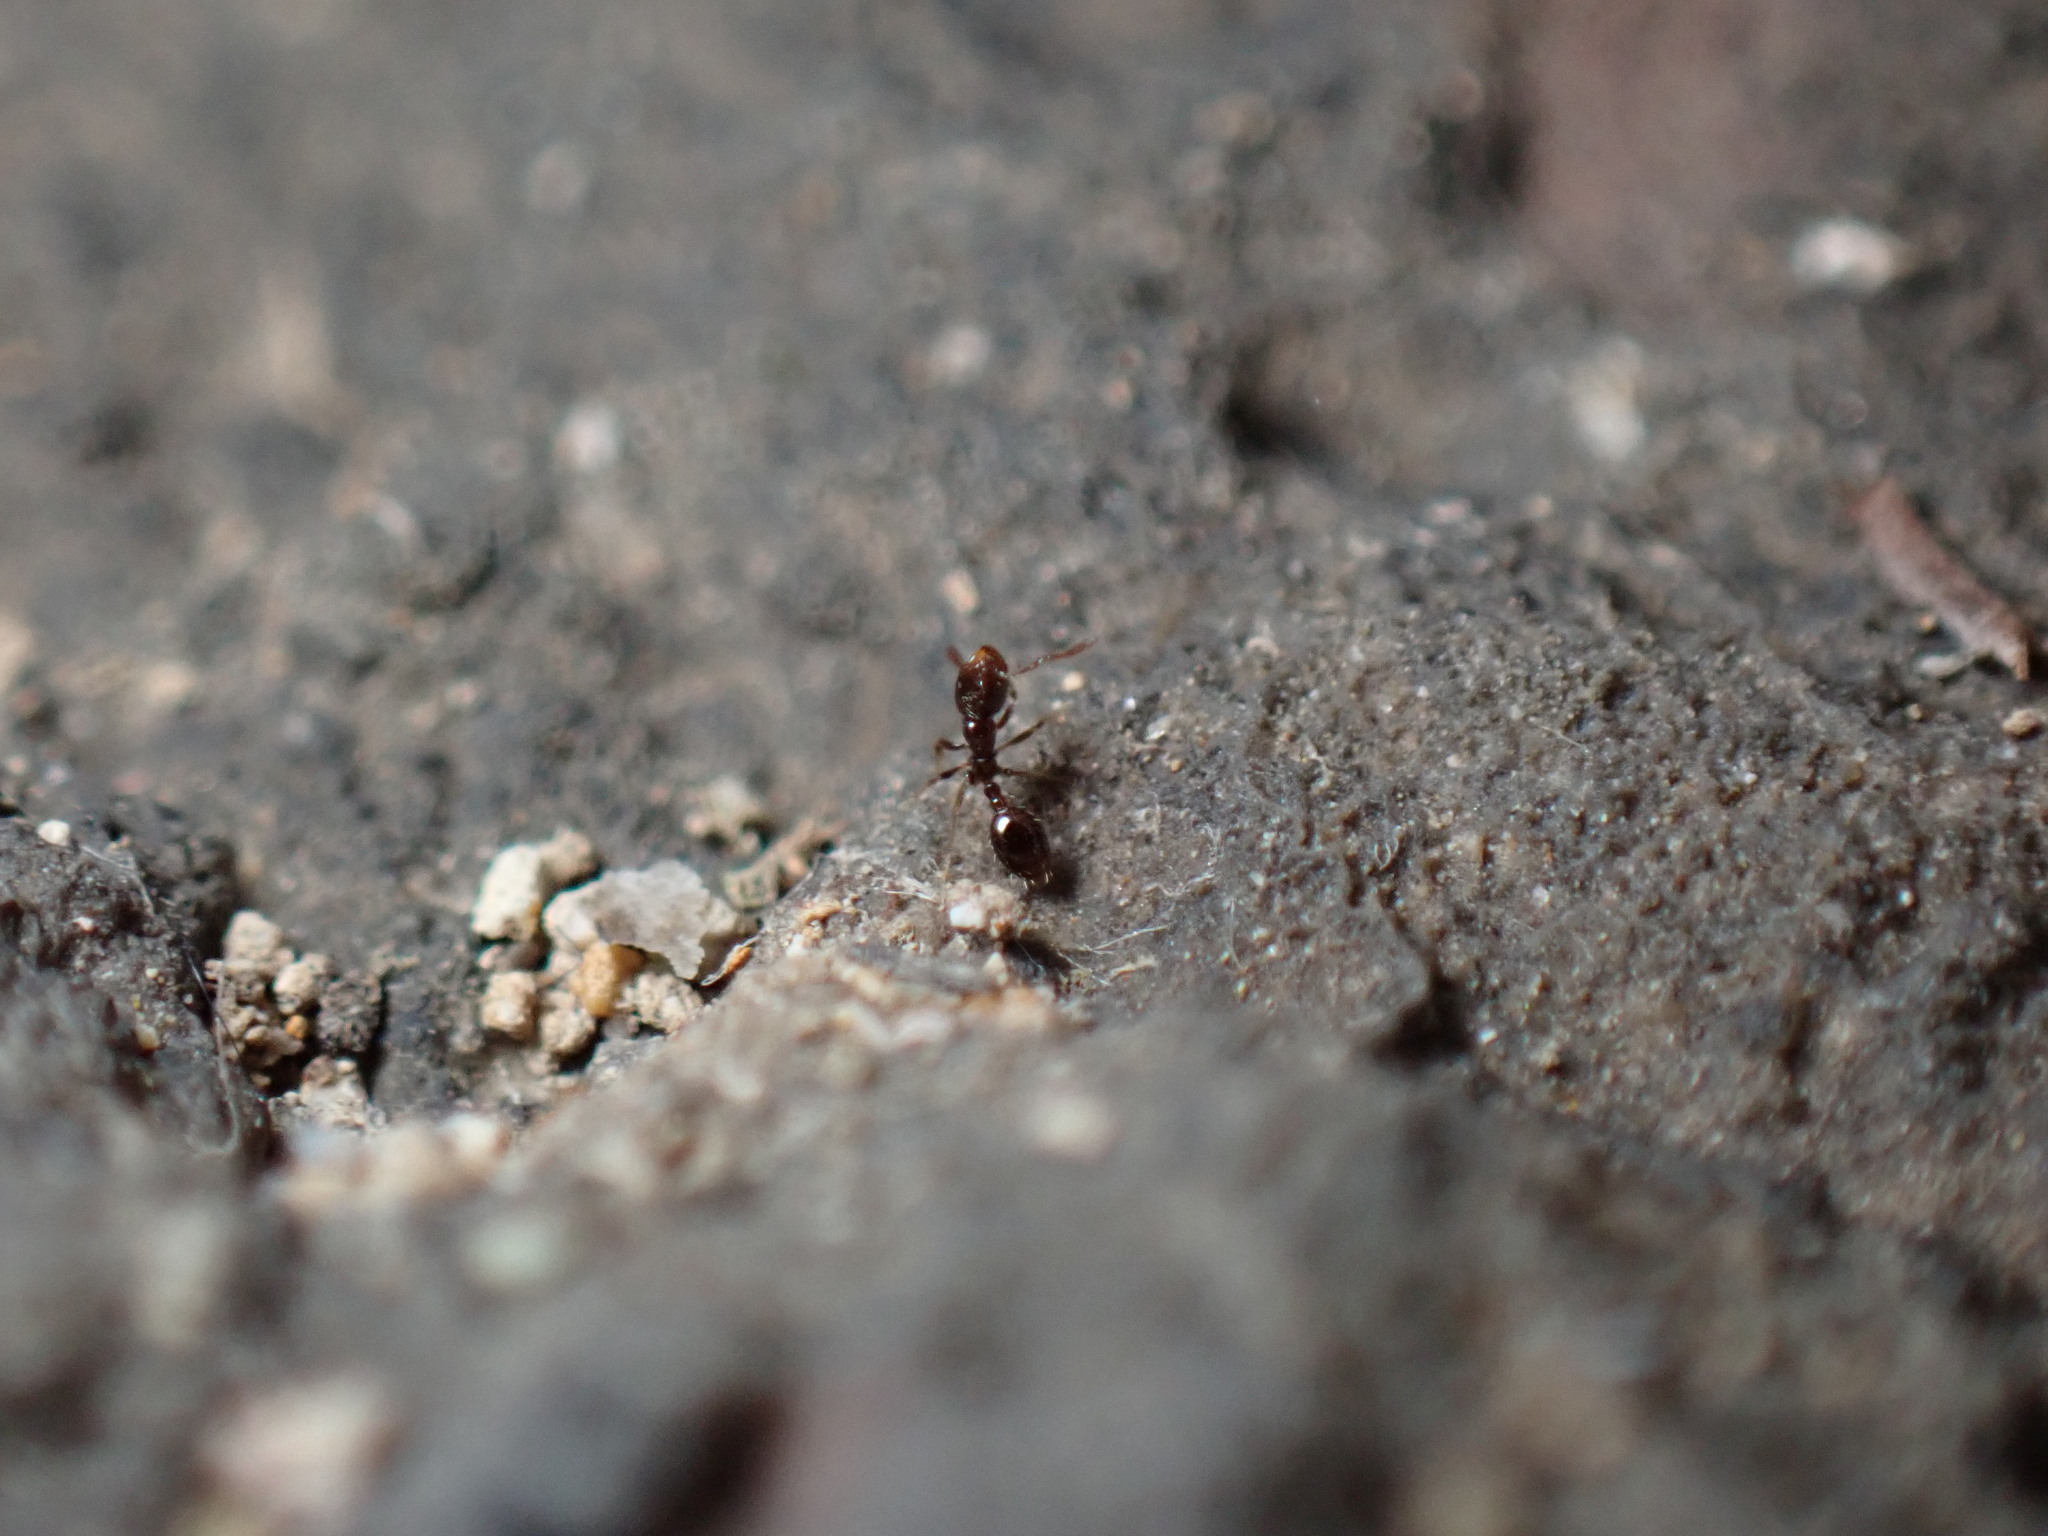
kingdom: Animalia
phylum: Arthropoda
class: Insecta
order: Hymenoptera
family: Formicidae
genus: Monomorium
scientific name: Monomorium chinense
